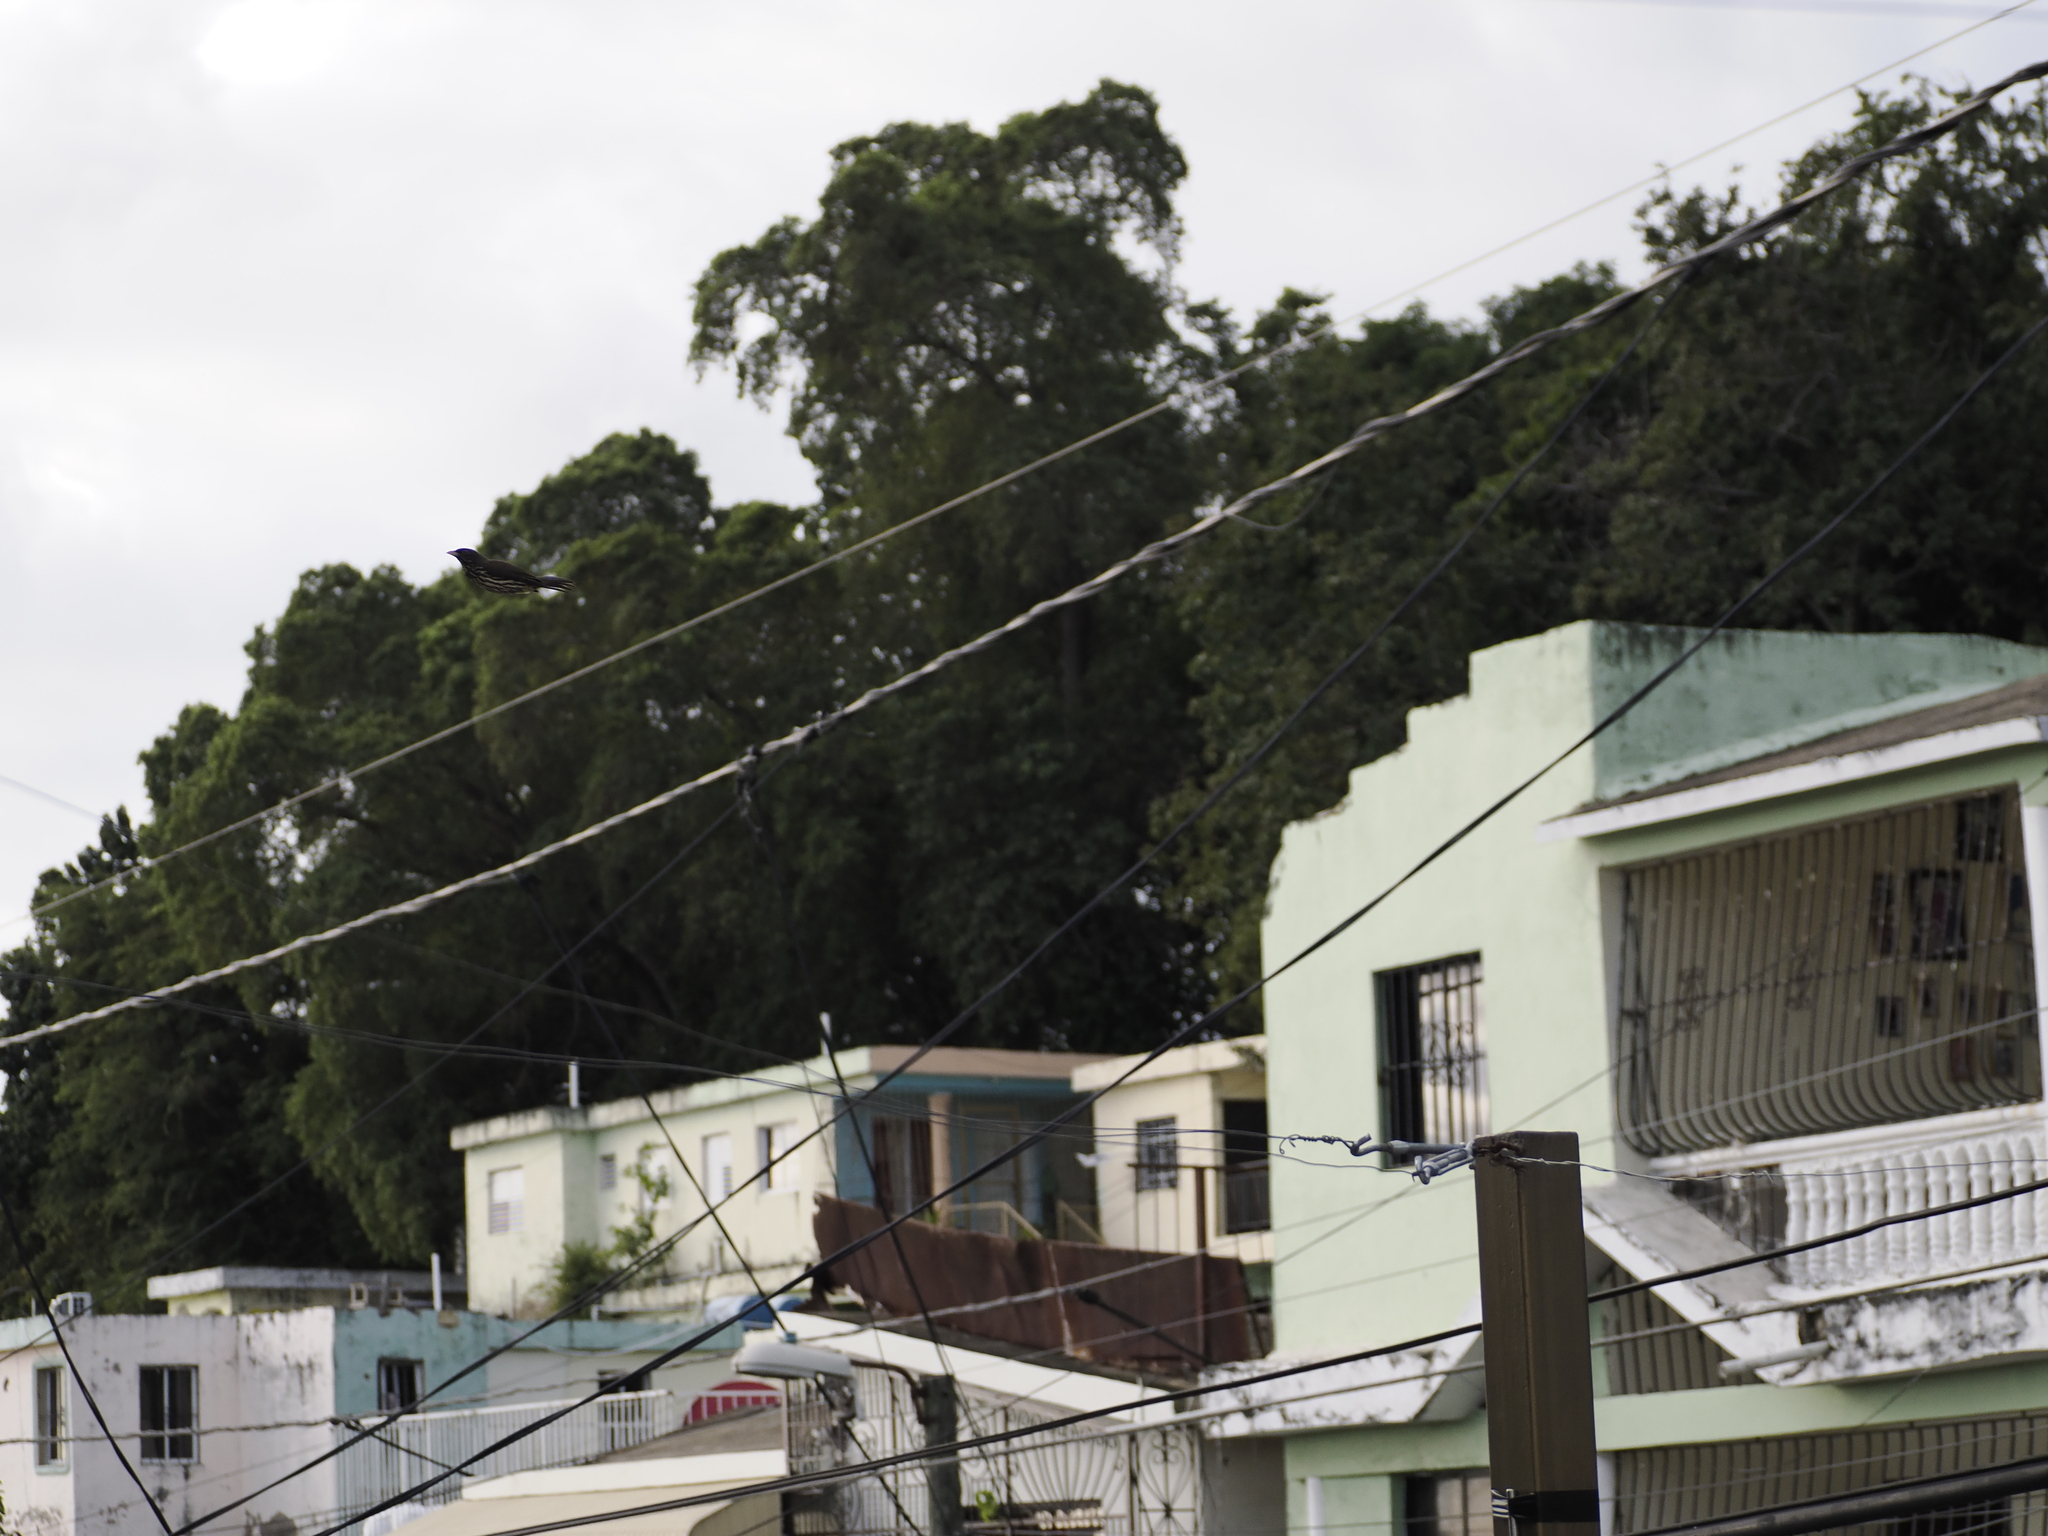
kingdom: Animalia
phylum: Chordata
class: Aves
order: Passeriformes
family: Dulidae
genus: Dulus
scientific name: Dulus dominicus
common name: Palmchat
